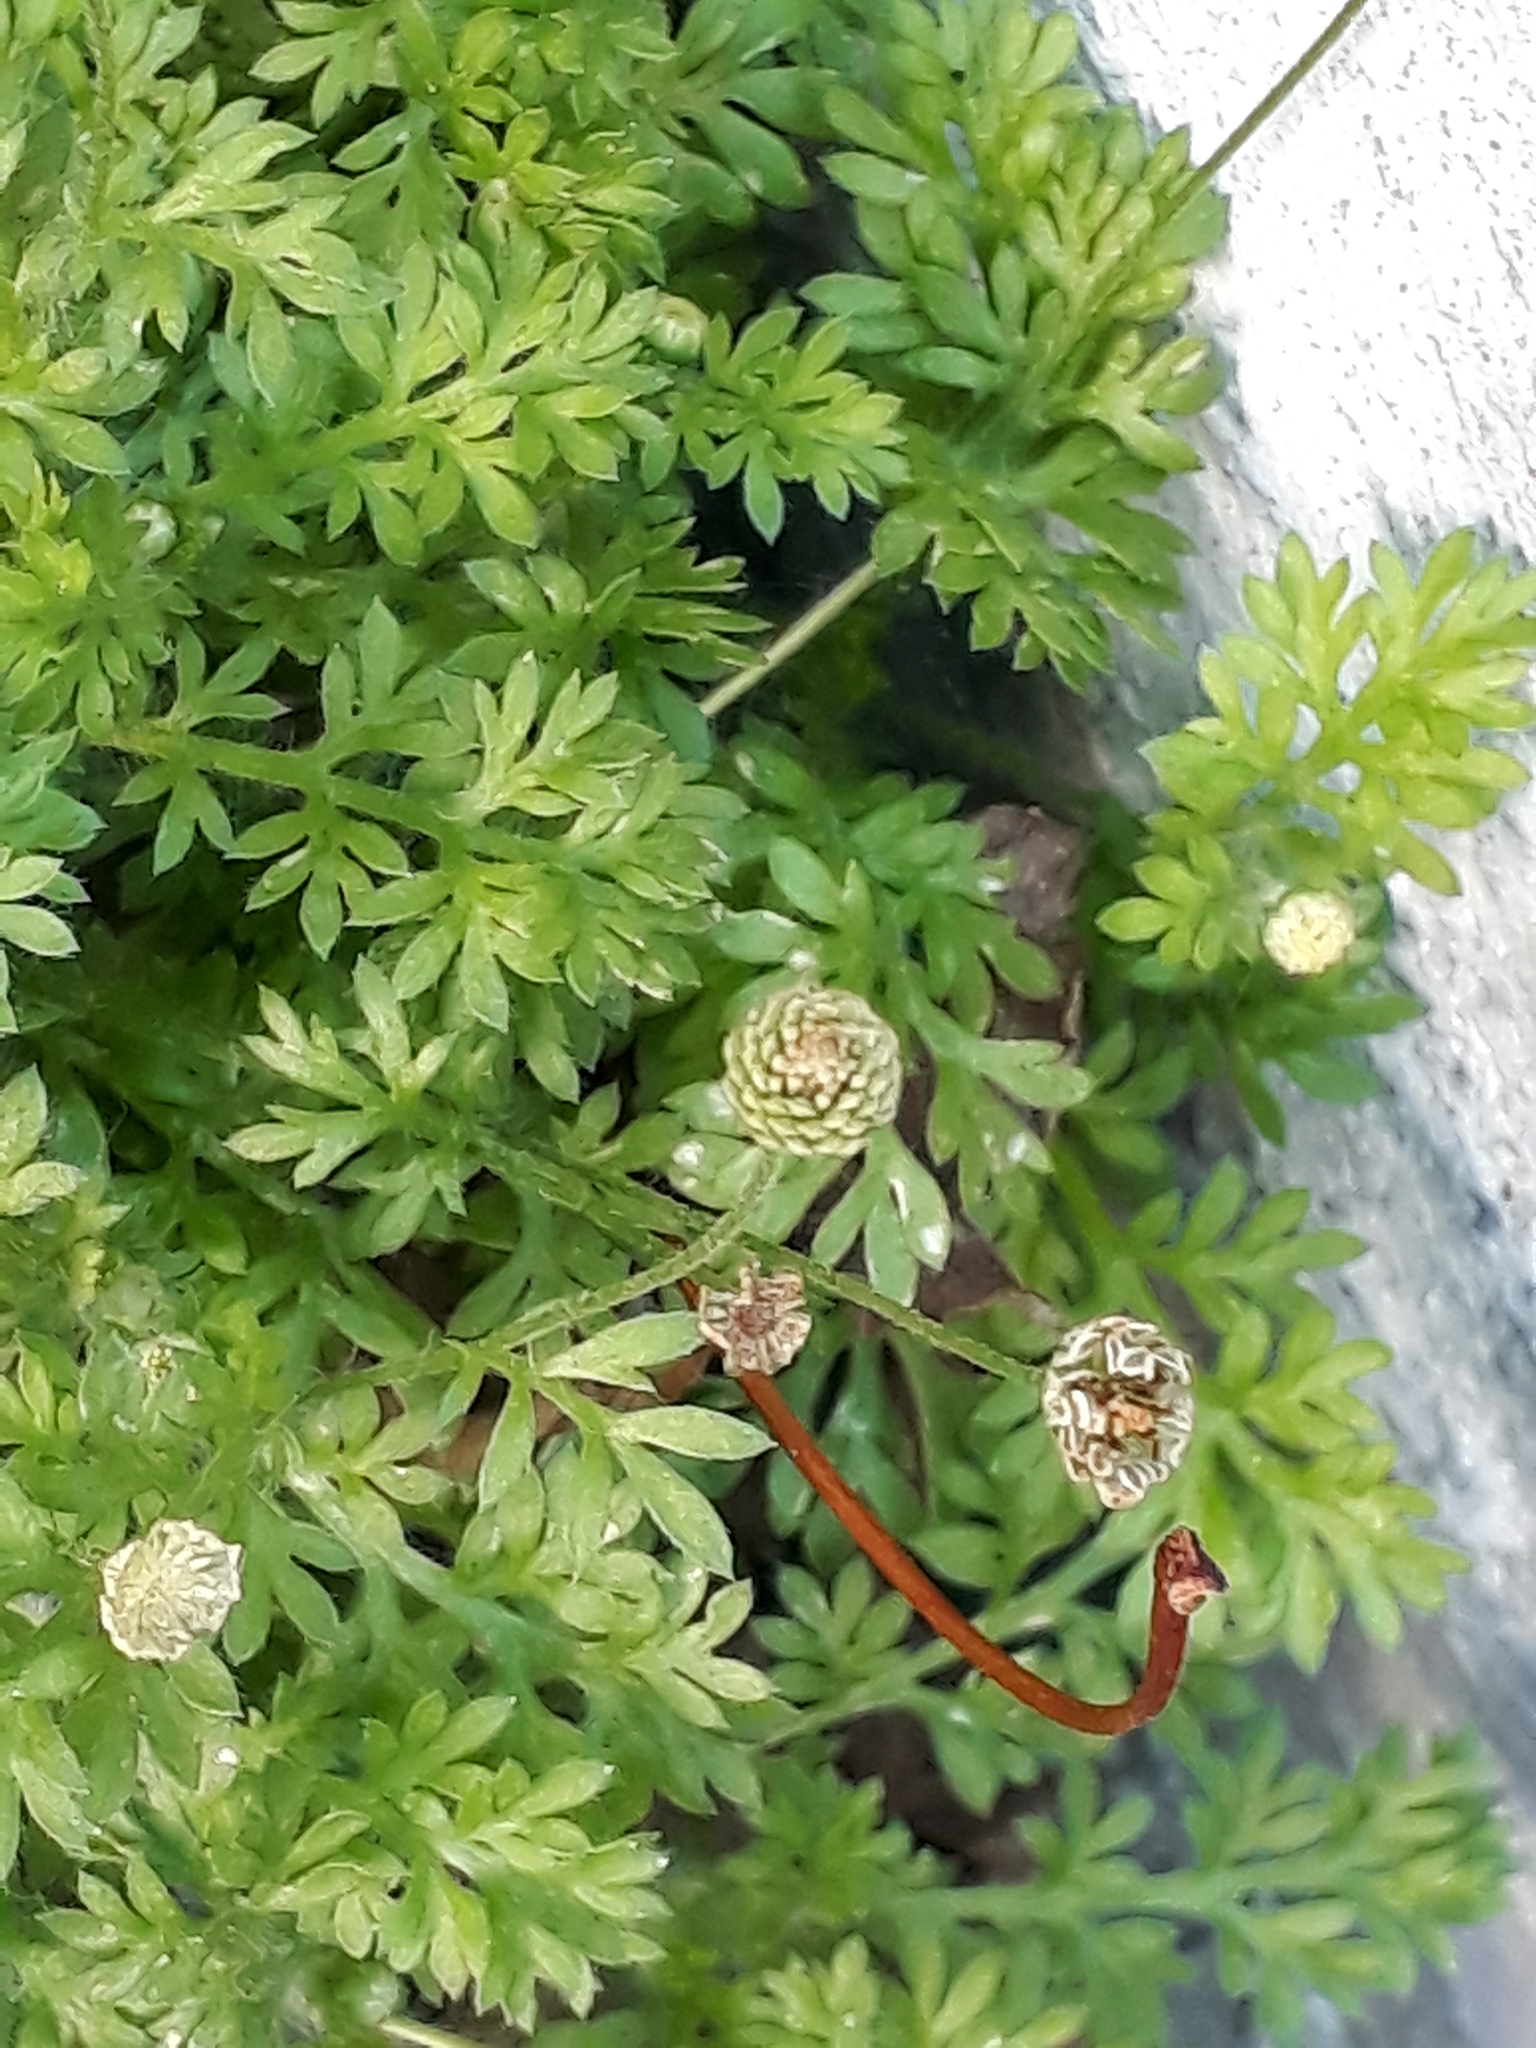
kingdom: Plantae
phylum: Tracheophyta
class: Magnoliopsida
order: Asterales
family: Asteraceae
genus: Cotula
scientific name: Cotula australis
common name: Australian waterbuttons
